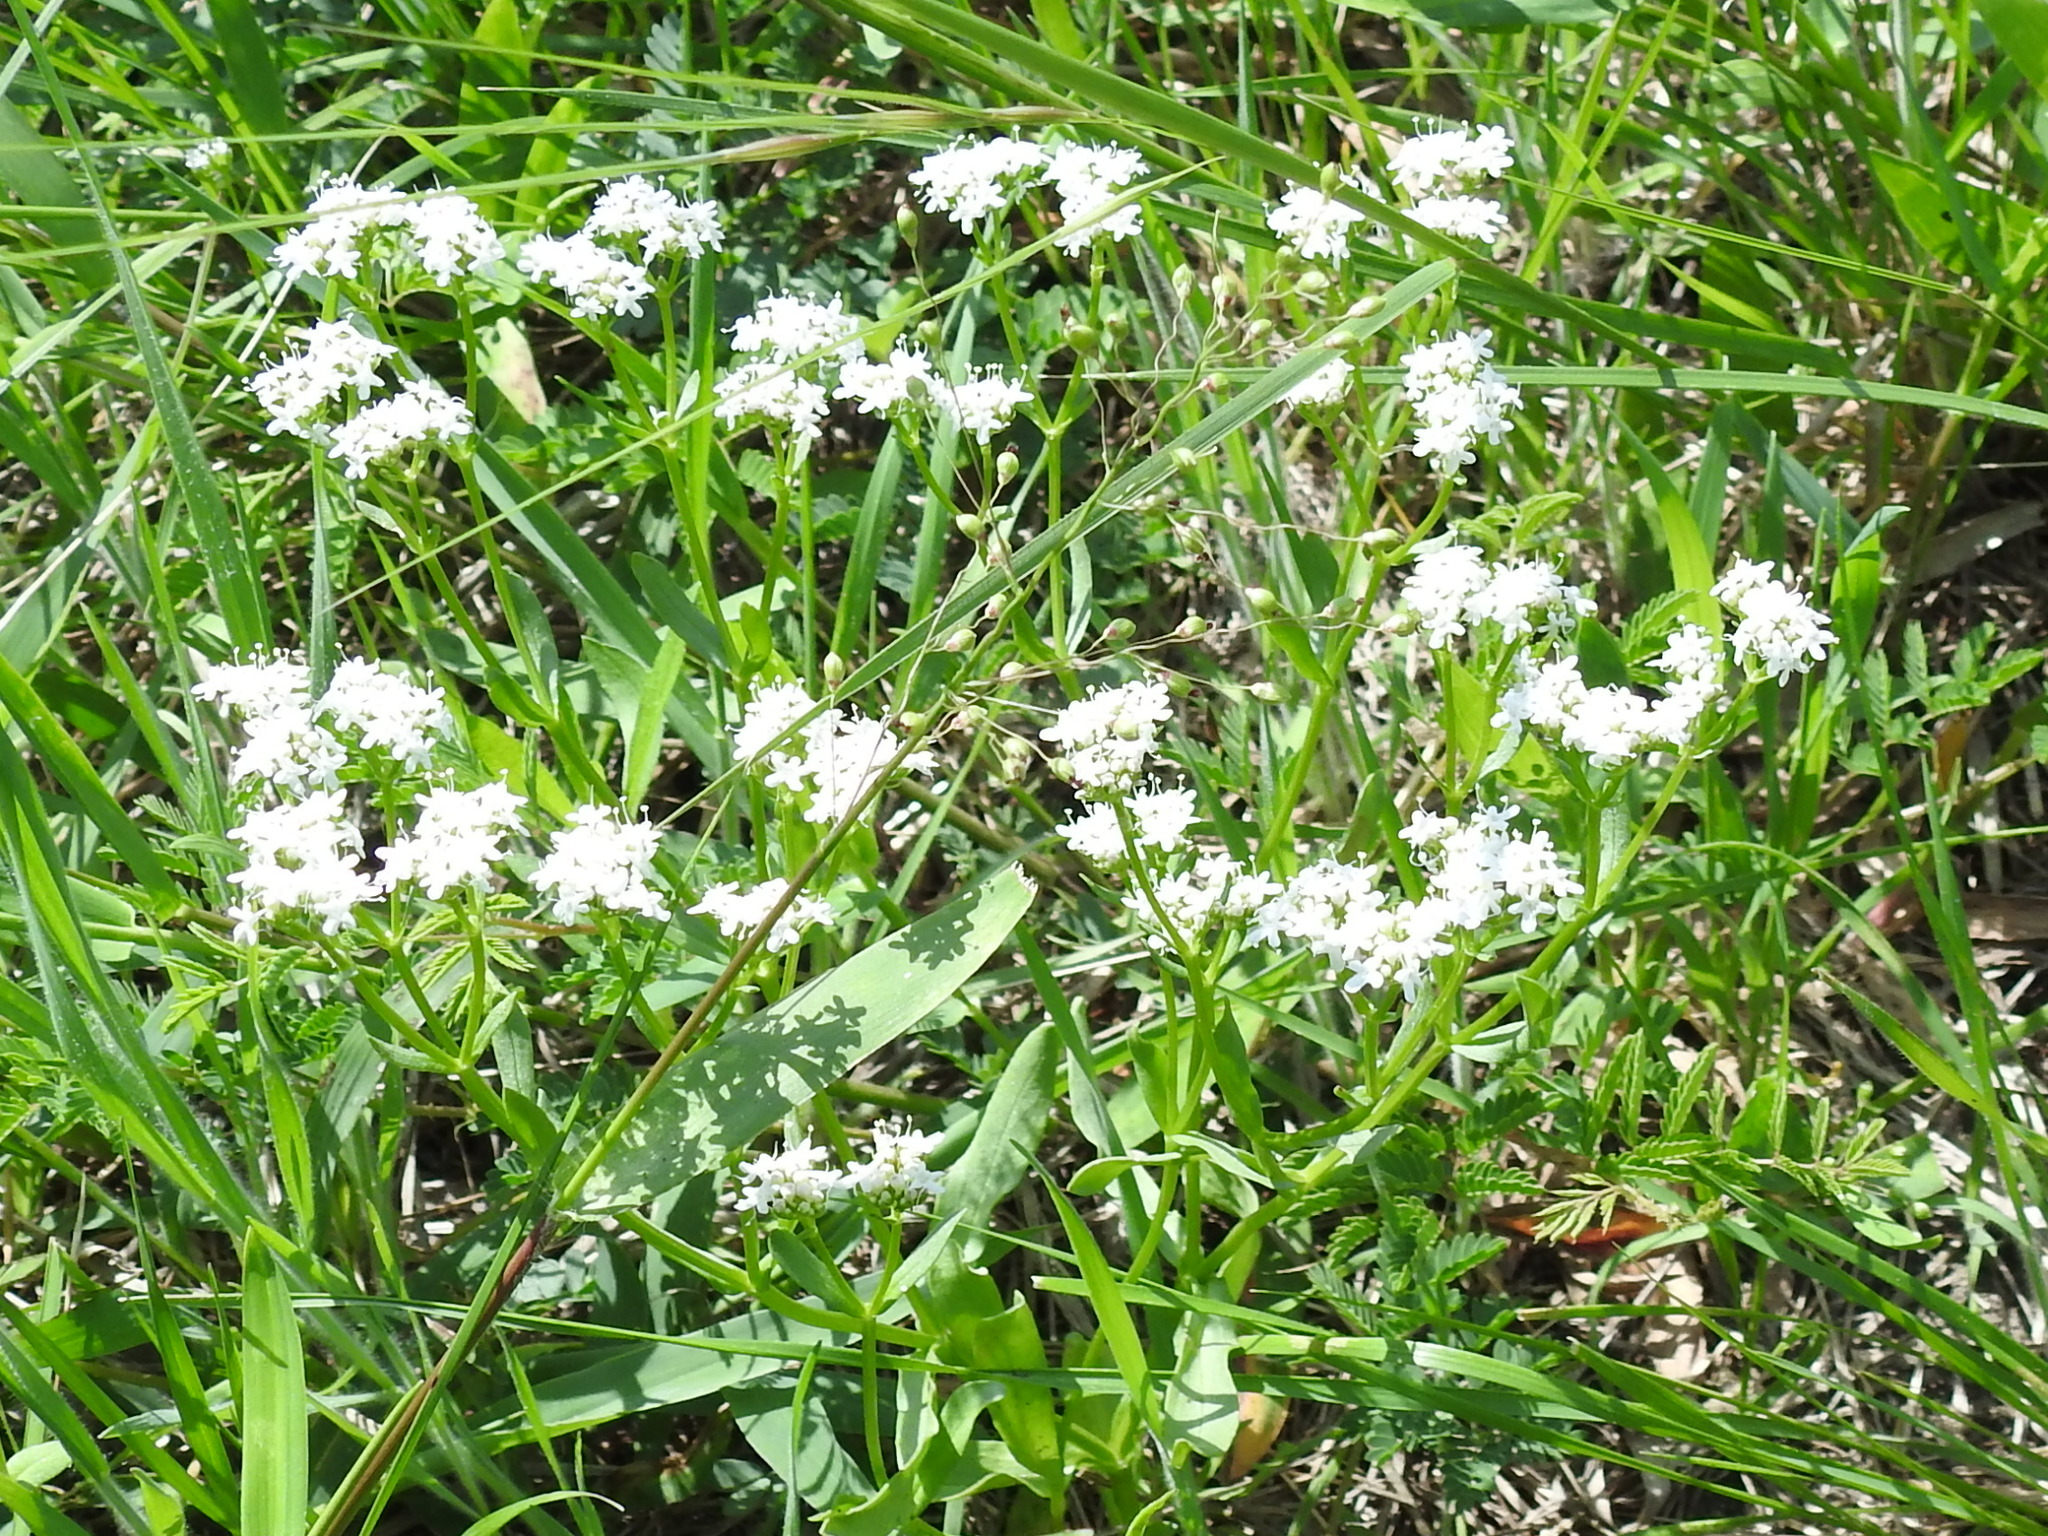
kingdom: Plantae
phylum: Tracheophyta
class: Magnoliopsida
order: Dipsacales
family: Caprifoliaceae
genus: Valerianella
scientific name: Valerianella amarella
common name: Hariy cornsalad
